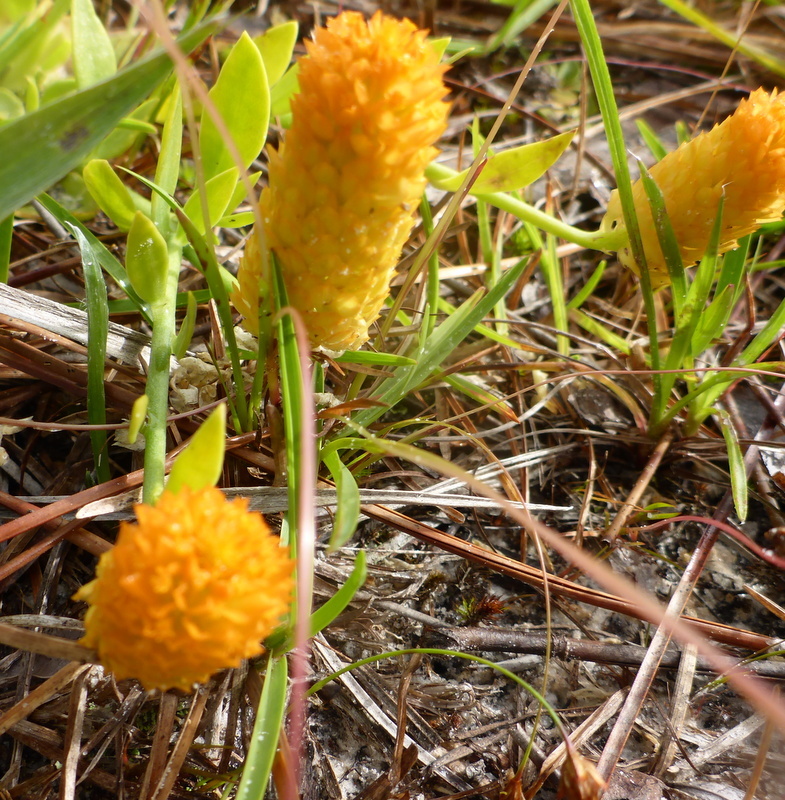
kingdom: Plantae
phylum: Tracheophyta
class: Magnoliopsida
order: Fabales
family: Polygalaceae
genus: Polygala
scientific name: Polygala lutea
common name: Orange milkwort
